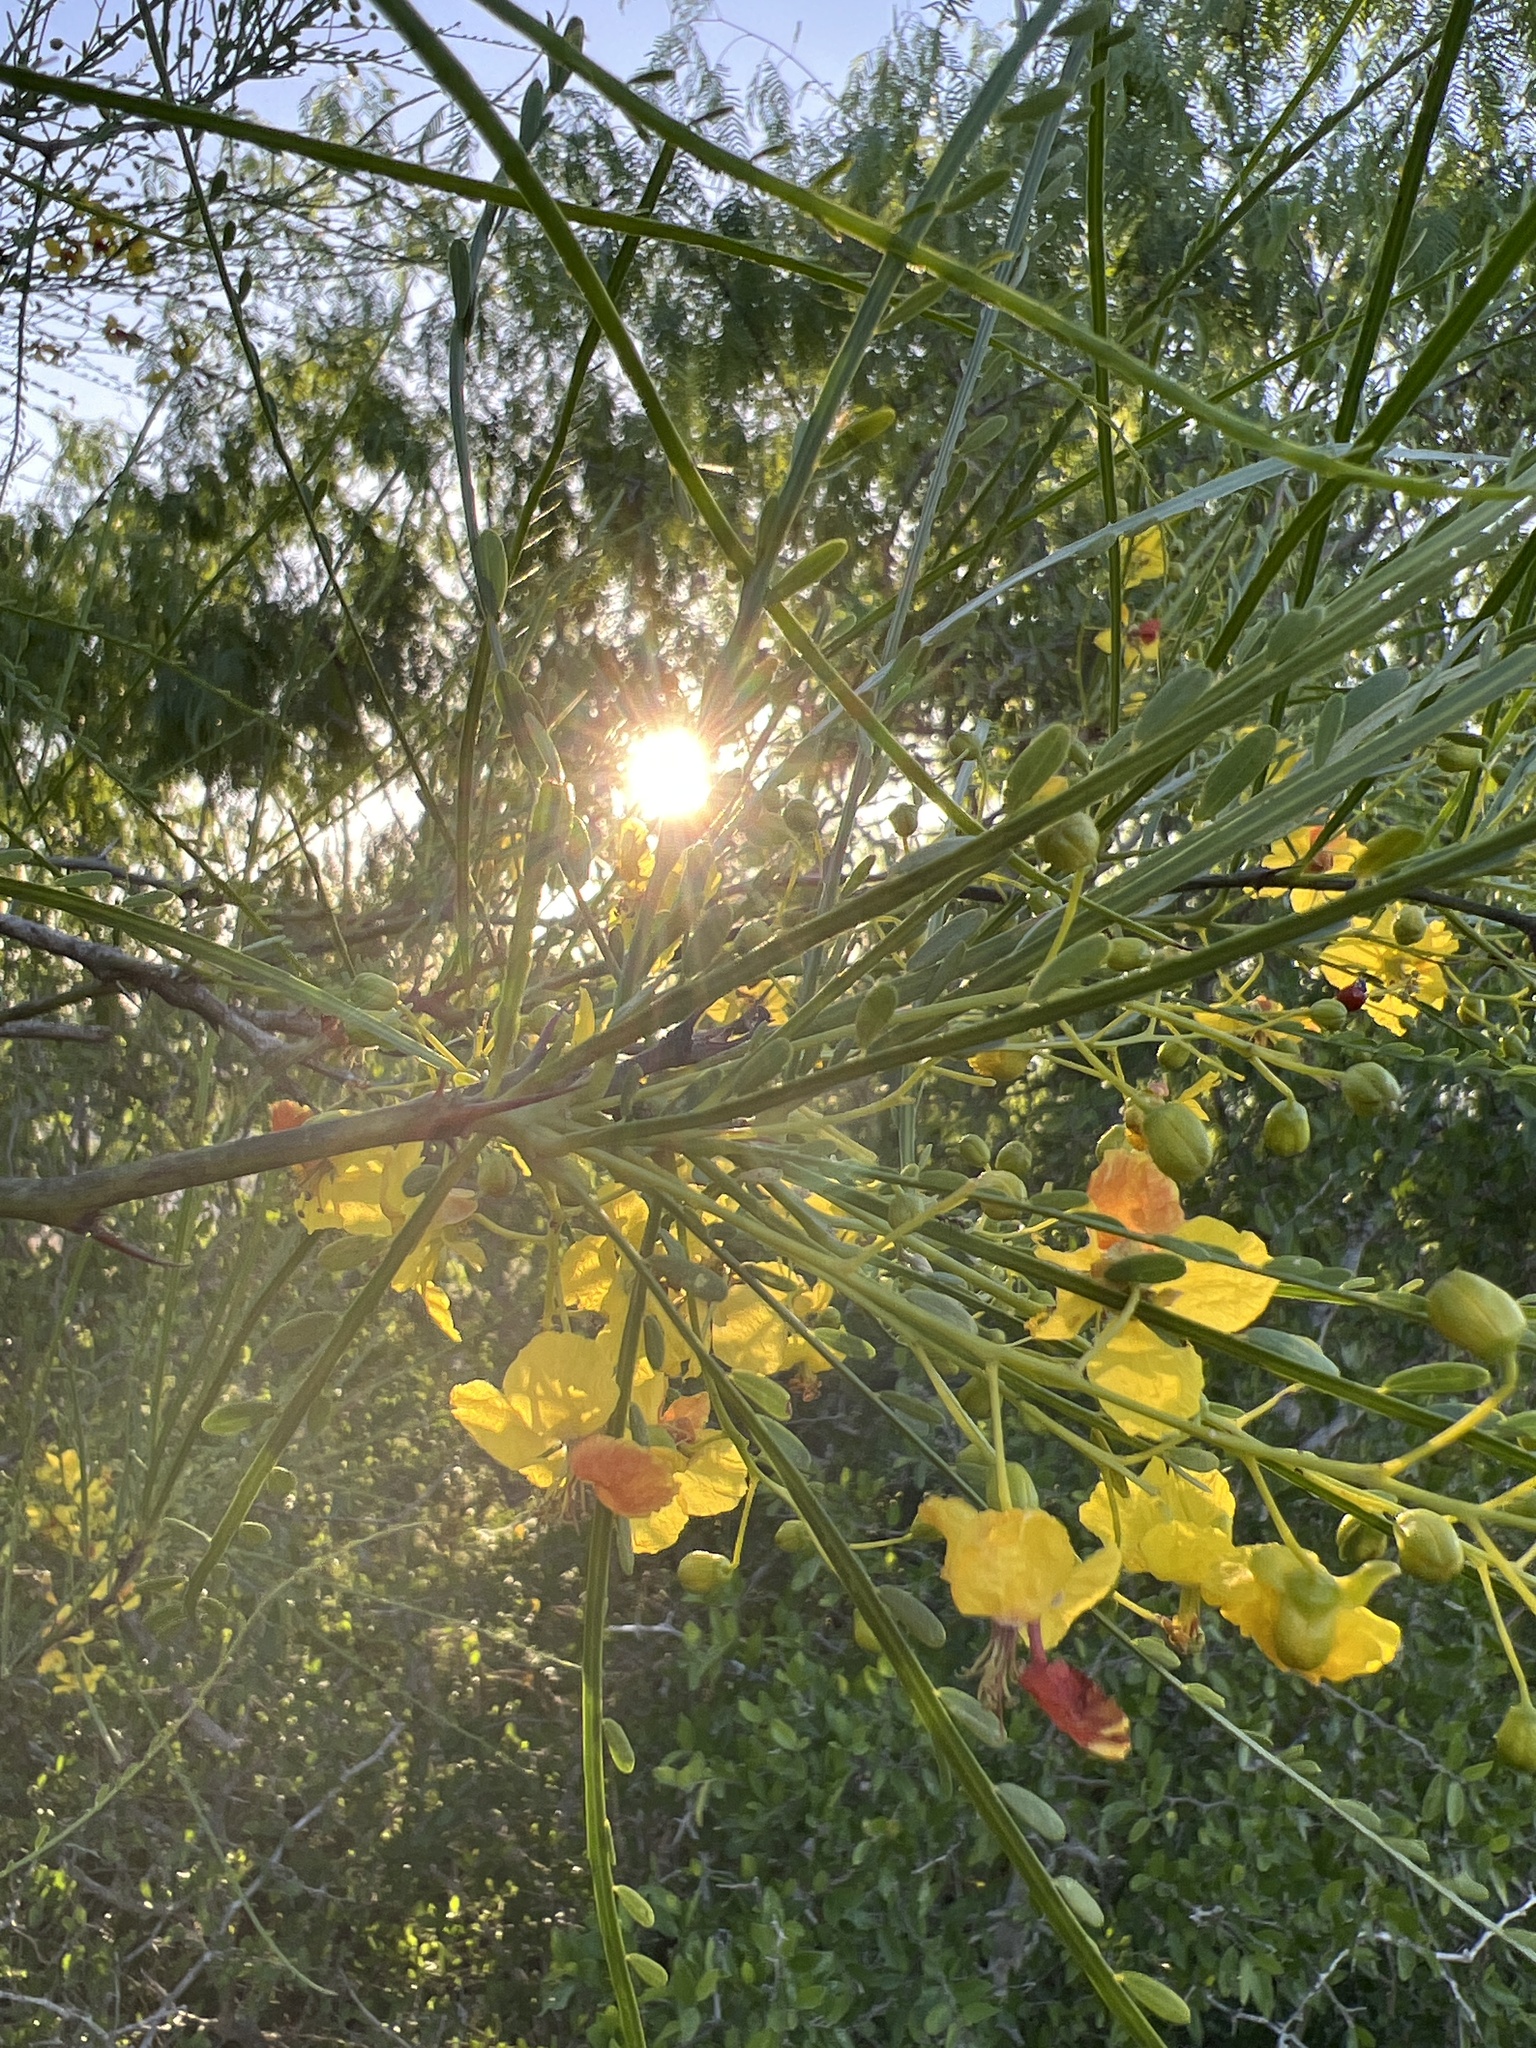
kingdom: Plantae
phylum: Tracheophyta
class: Magnoliopsida
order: Fabales
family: Fabaceae
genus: Parkinsonia
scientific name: Parkinsonia aculeata
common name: Jerusalem thorn
